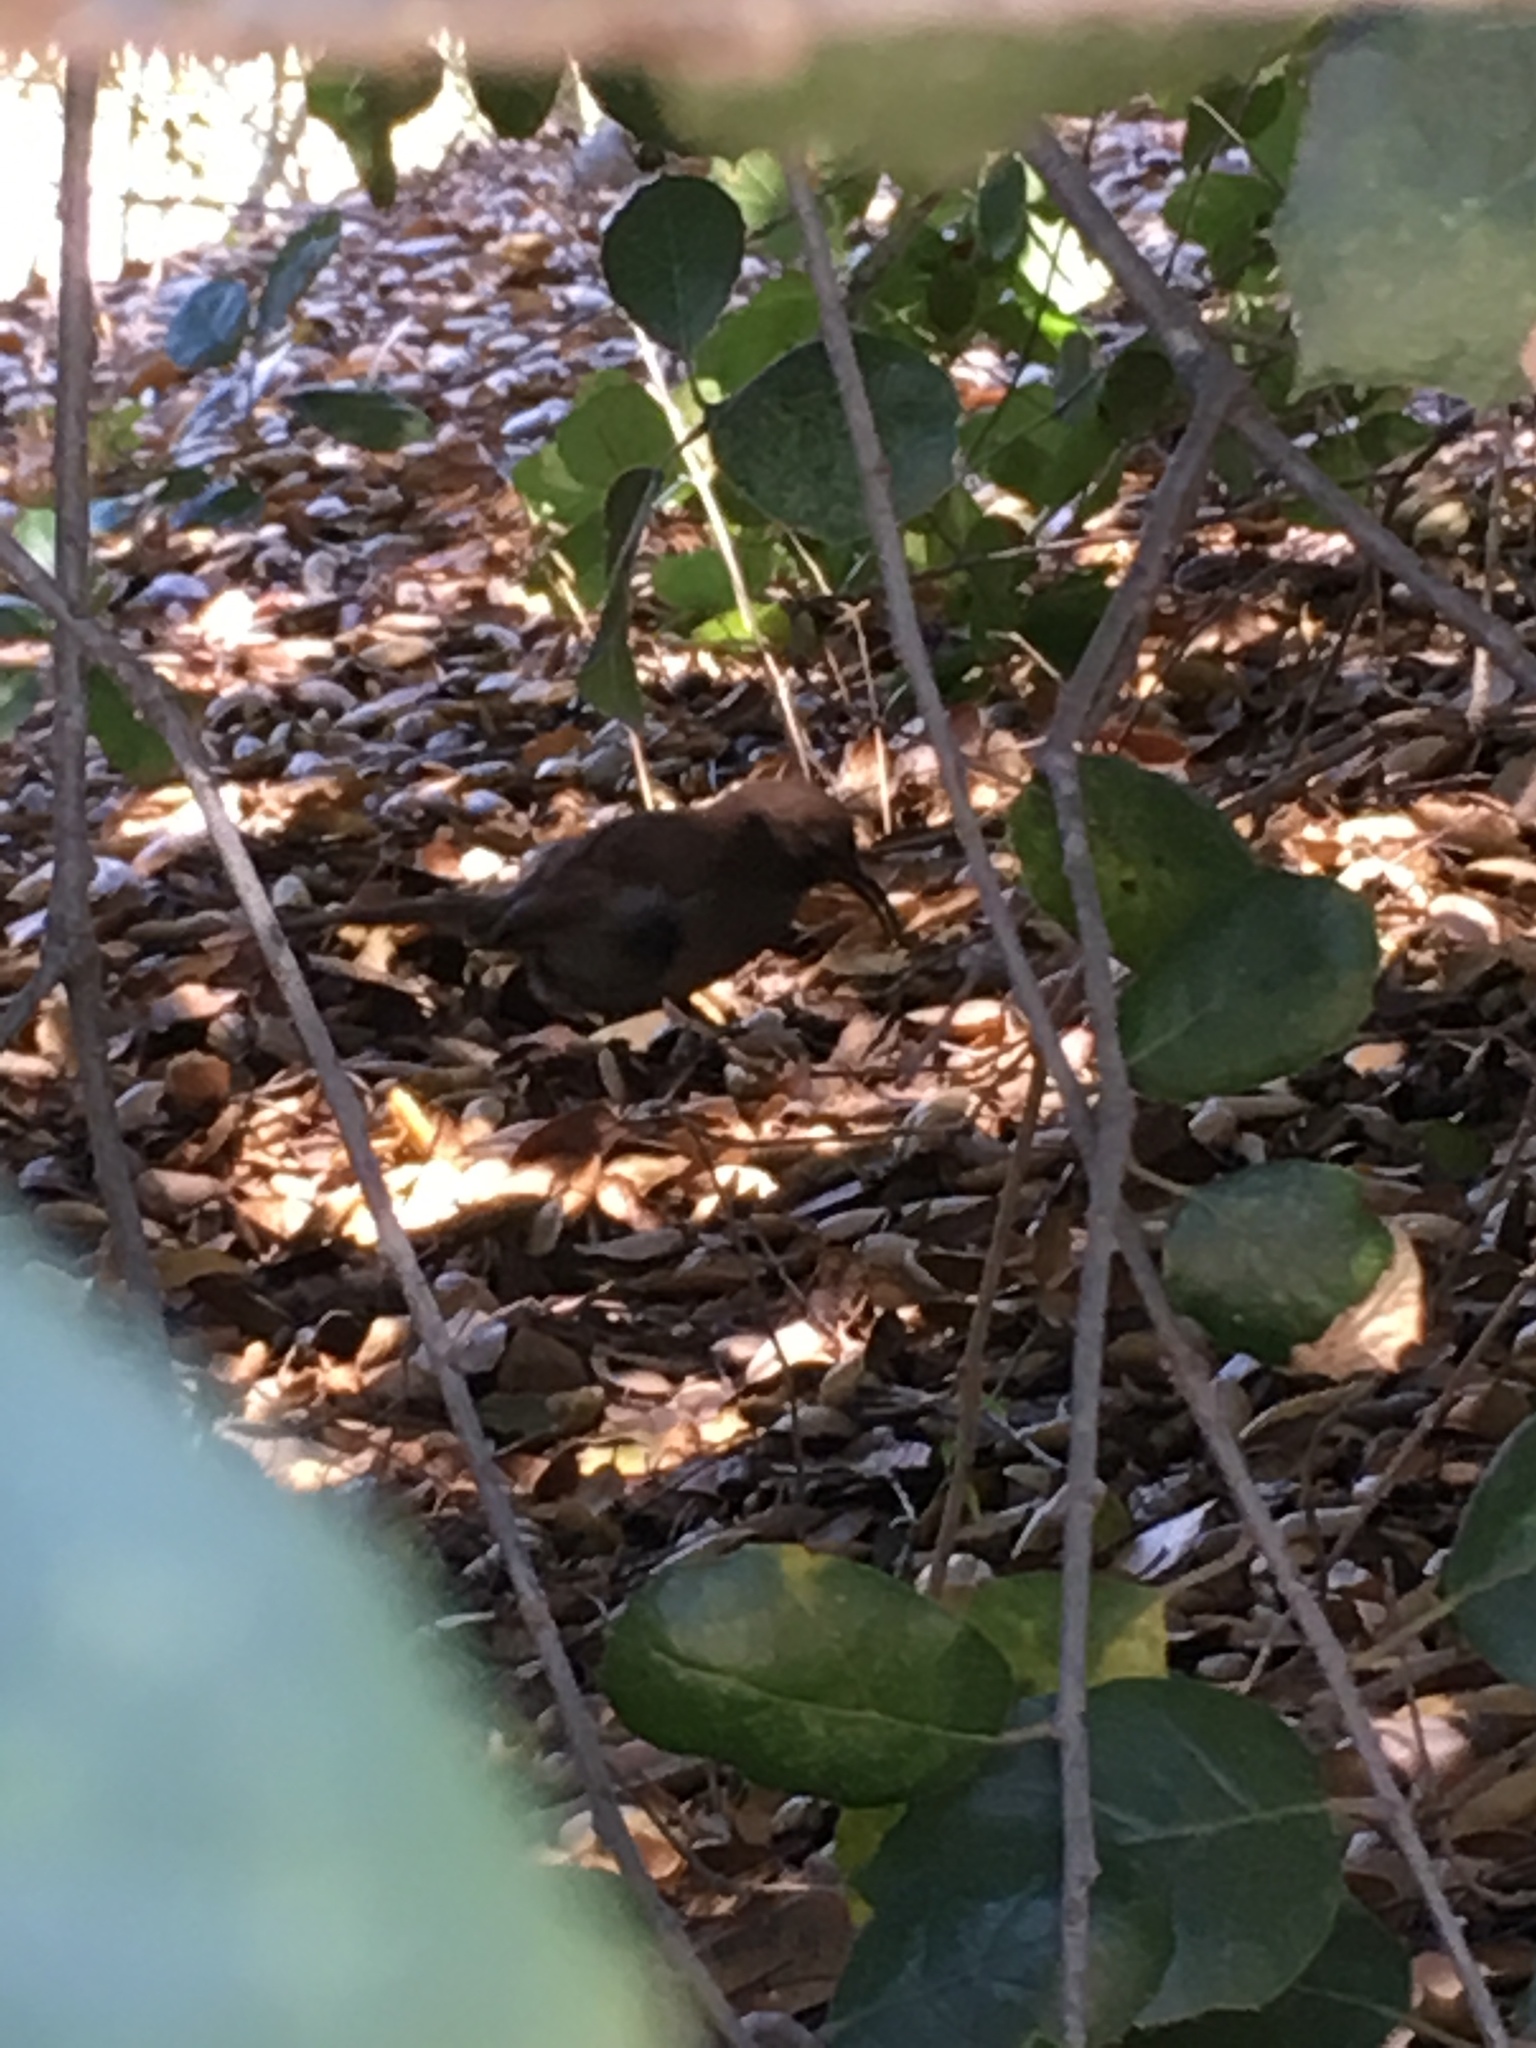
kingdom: Animalia
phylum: Chordata
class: Aves
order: Passeriformes
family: Mimidae
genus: Toxostoma
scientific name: Toxostoma redivivum
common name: California thrasher
